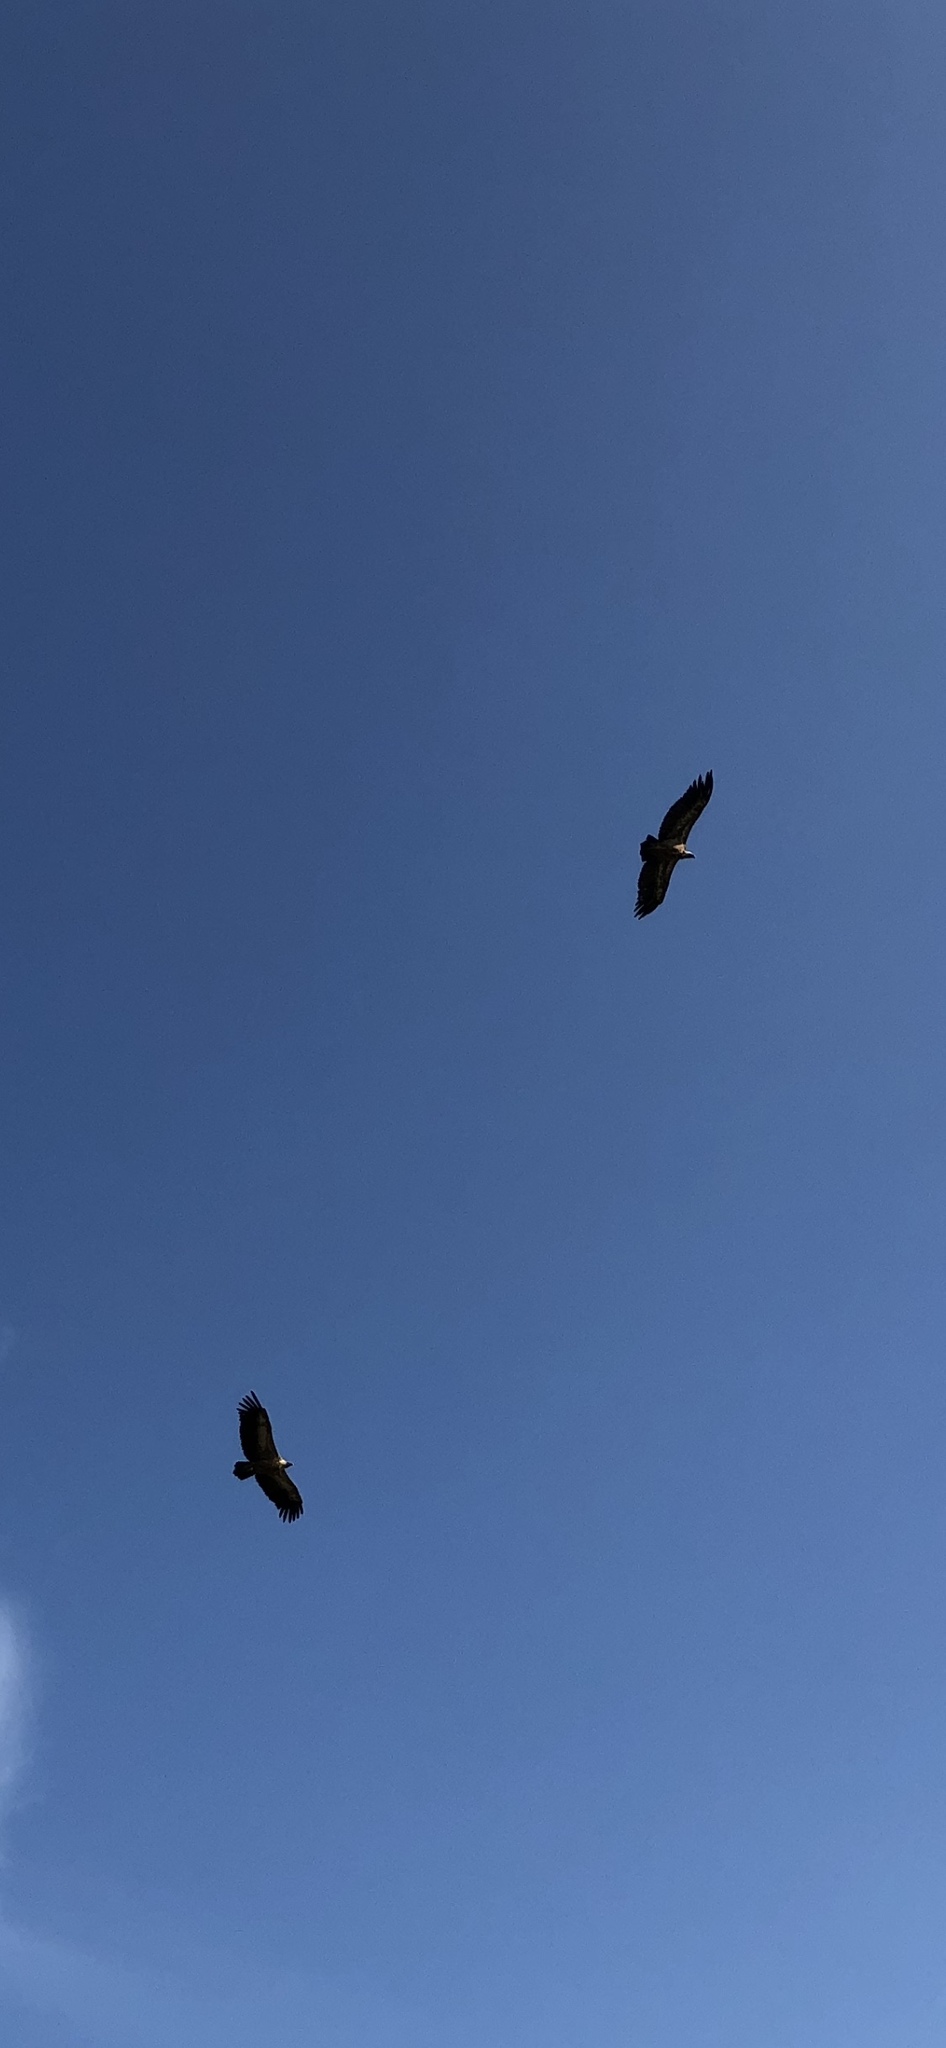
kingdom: Animalia
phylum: Chordata
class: Aves
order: Accipitriformes
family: Accipitridae
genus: Gyps
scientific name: Gyps fulvus
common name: Griffon vulture
